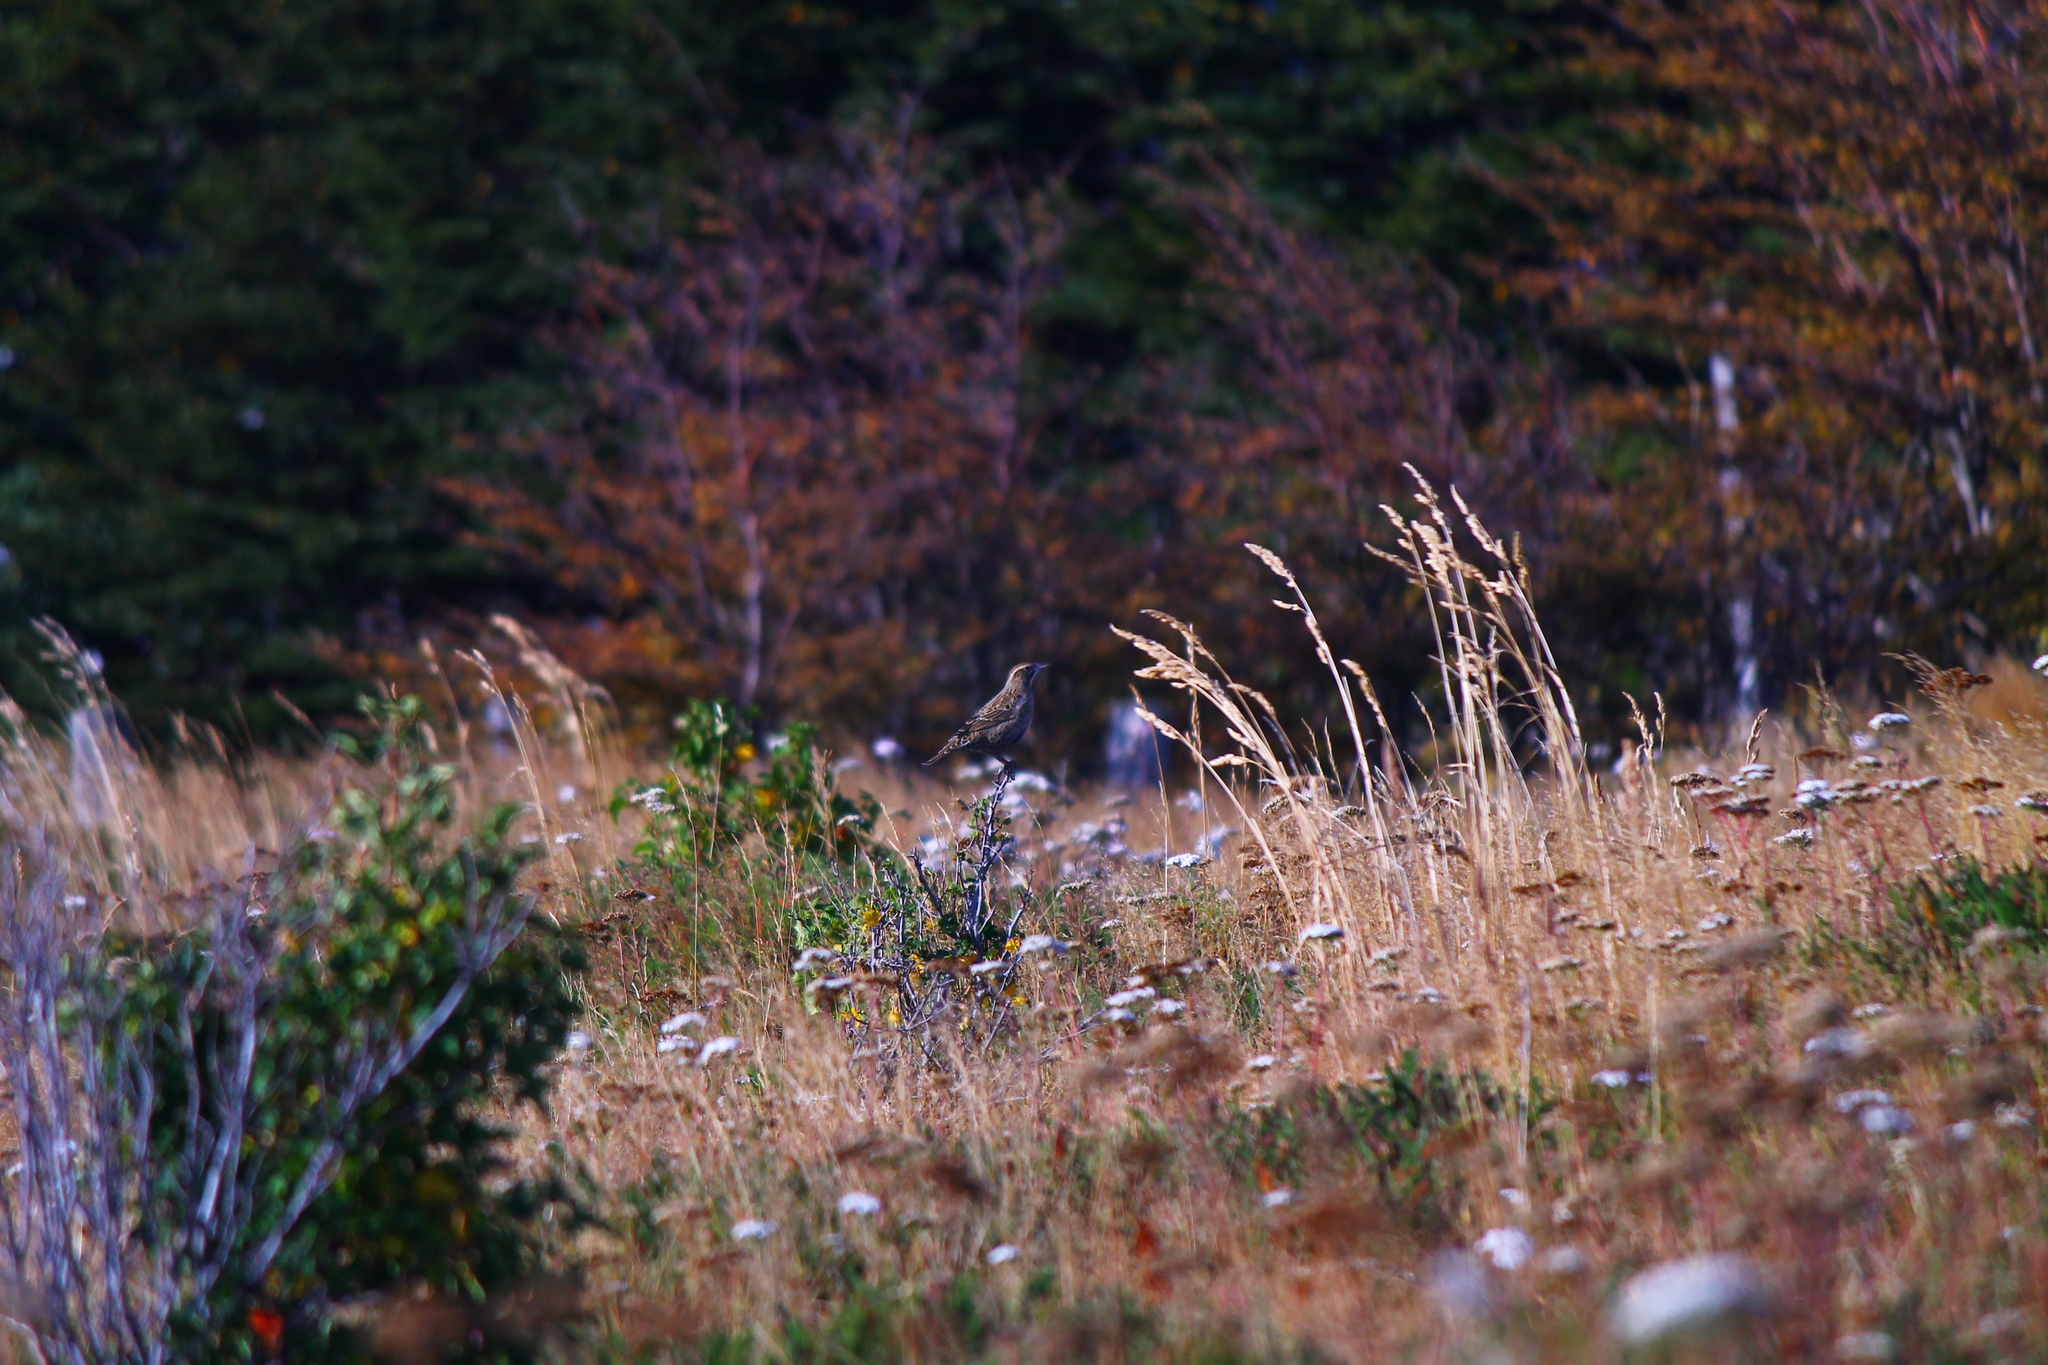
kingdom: Animalia
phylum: Chordata
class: Aves
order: Passeriformes
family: Icteridae
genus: Sturnella
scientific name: Sturnella loyca
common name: Long-tailed meadowlark
